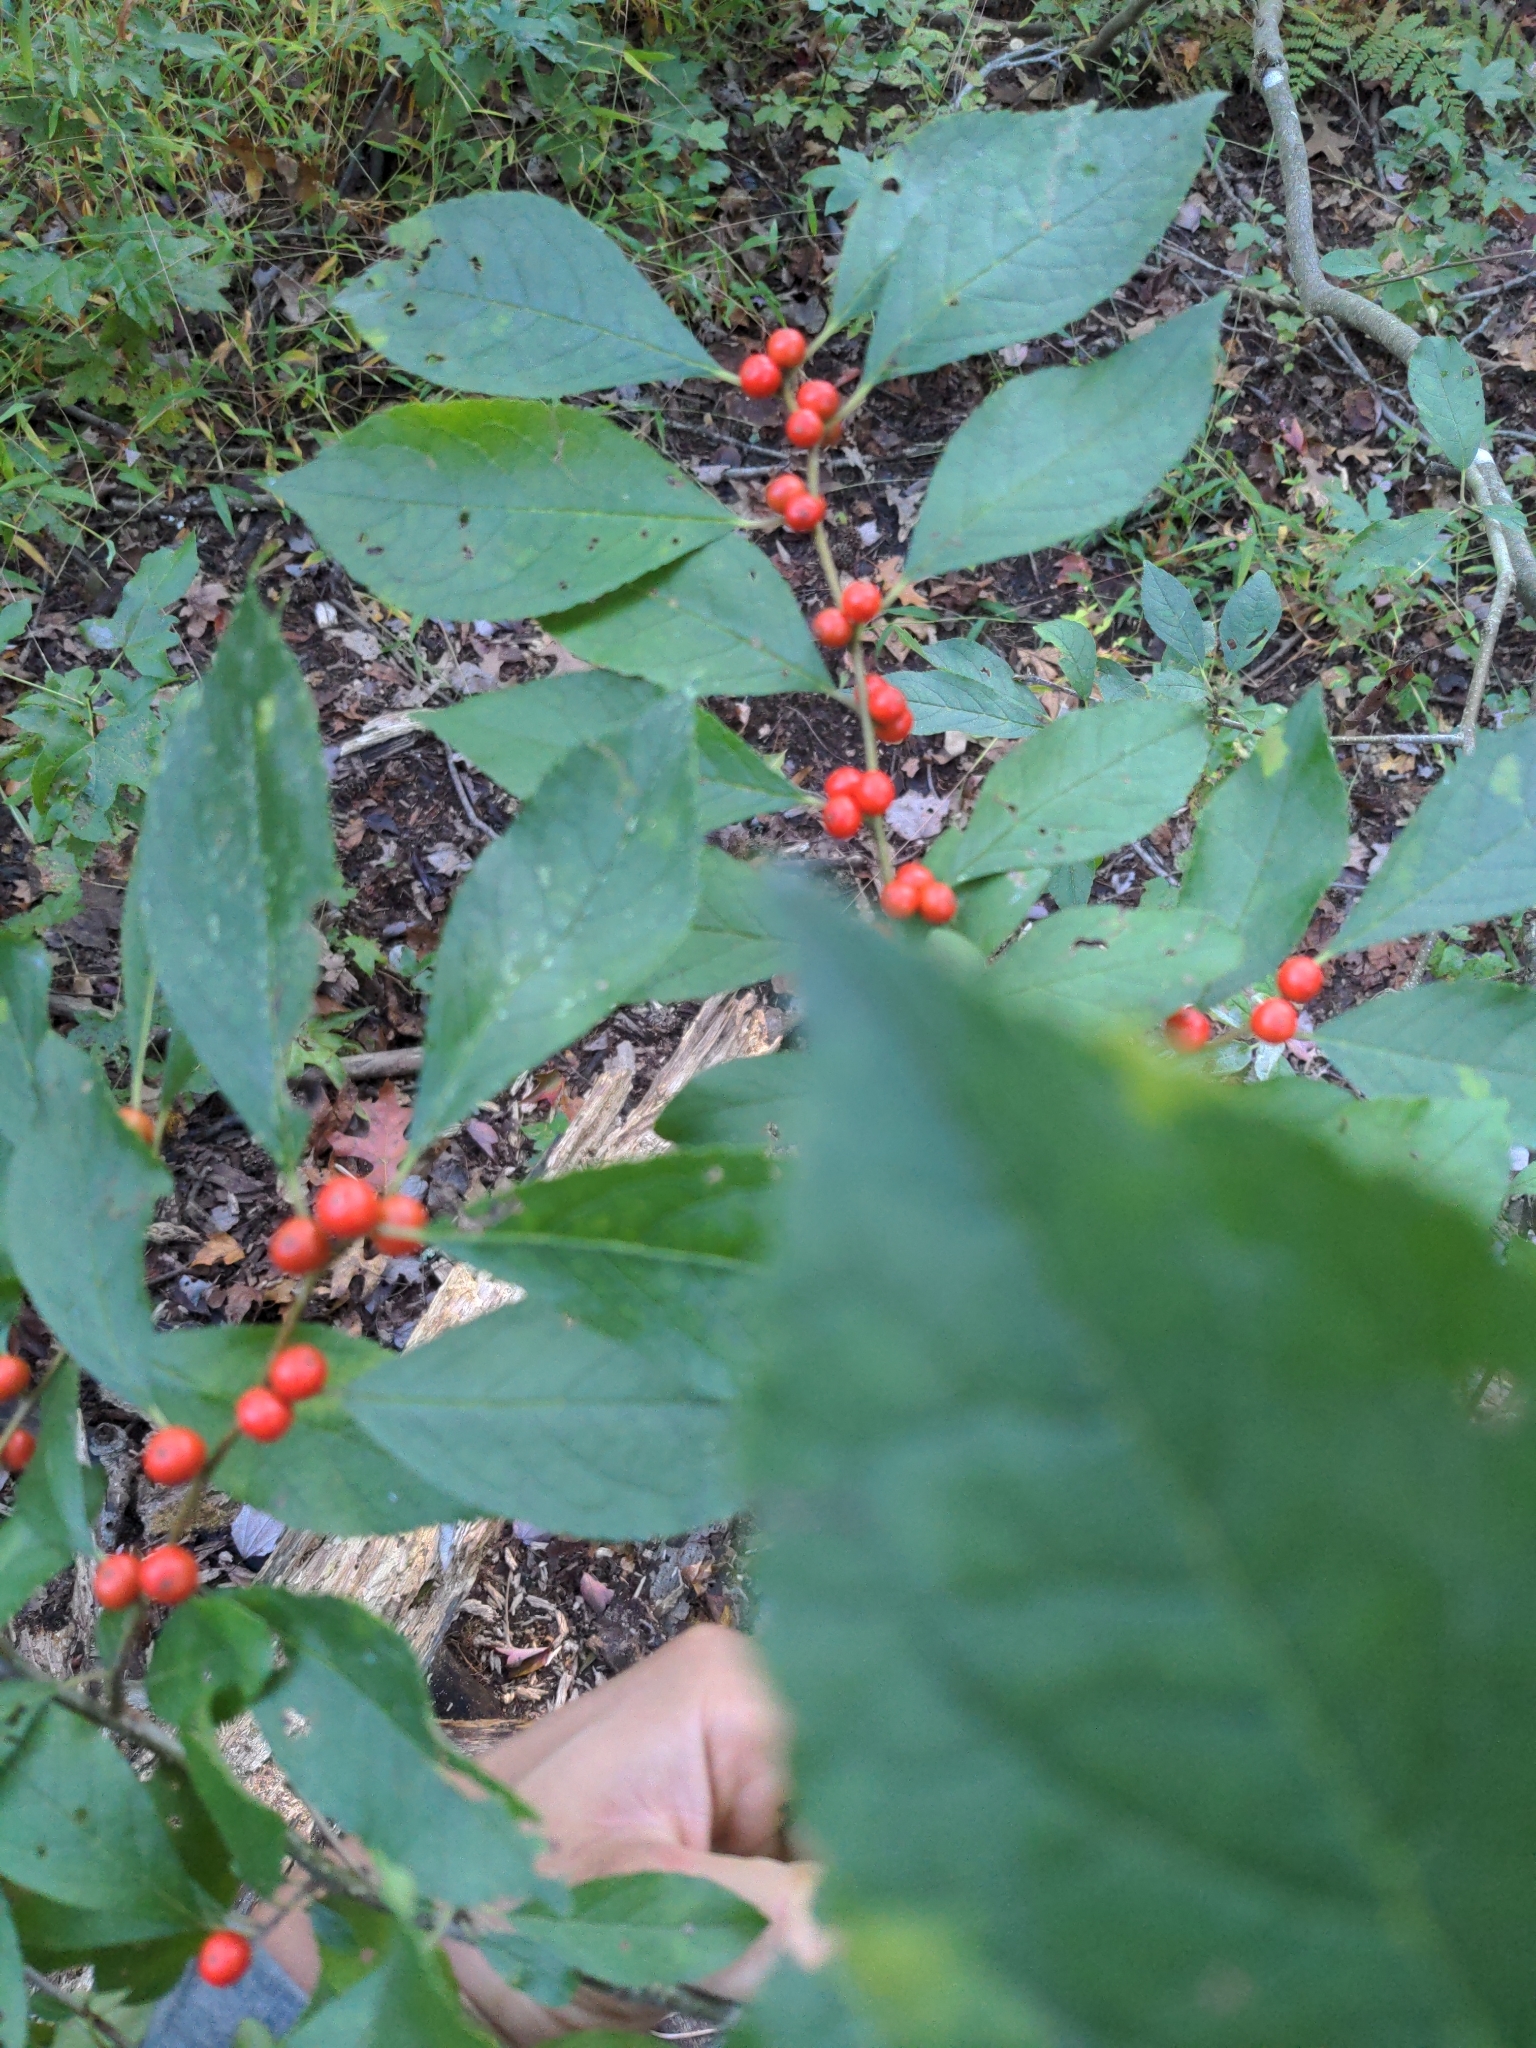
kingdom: Plantae
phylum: Tracheophyta
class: Magnoliopsida
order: Aquifoliales
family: Aquifoliaceae
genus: Ilex
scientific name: Ilex verticillata
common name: Virginia winterberry
